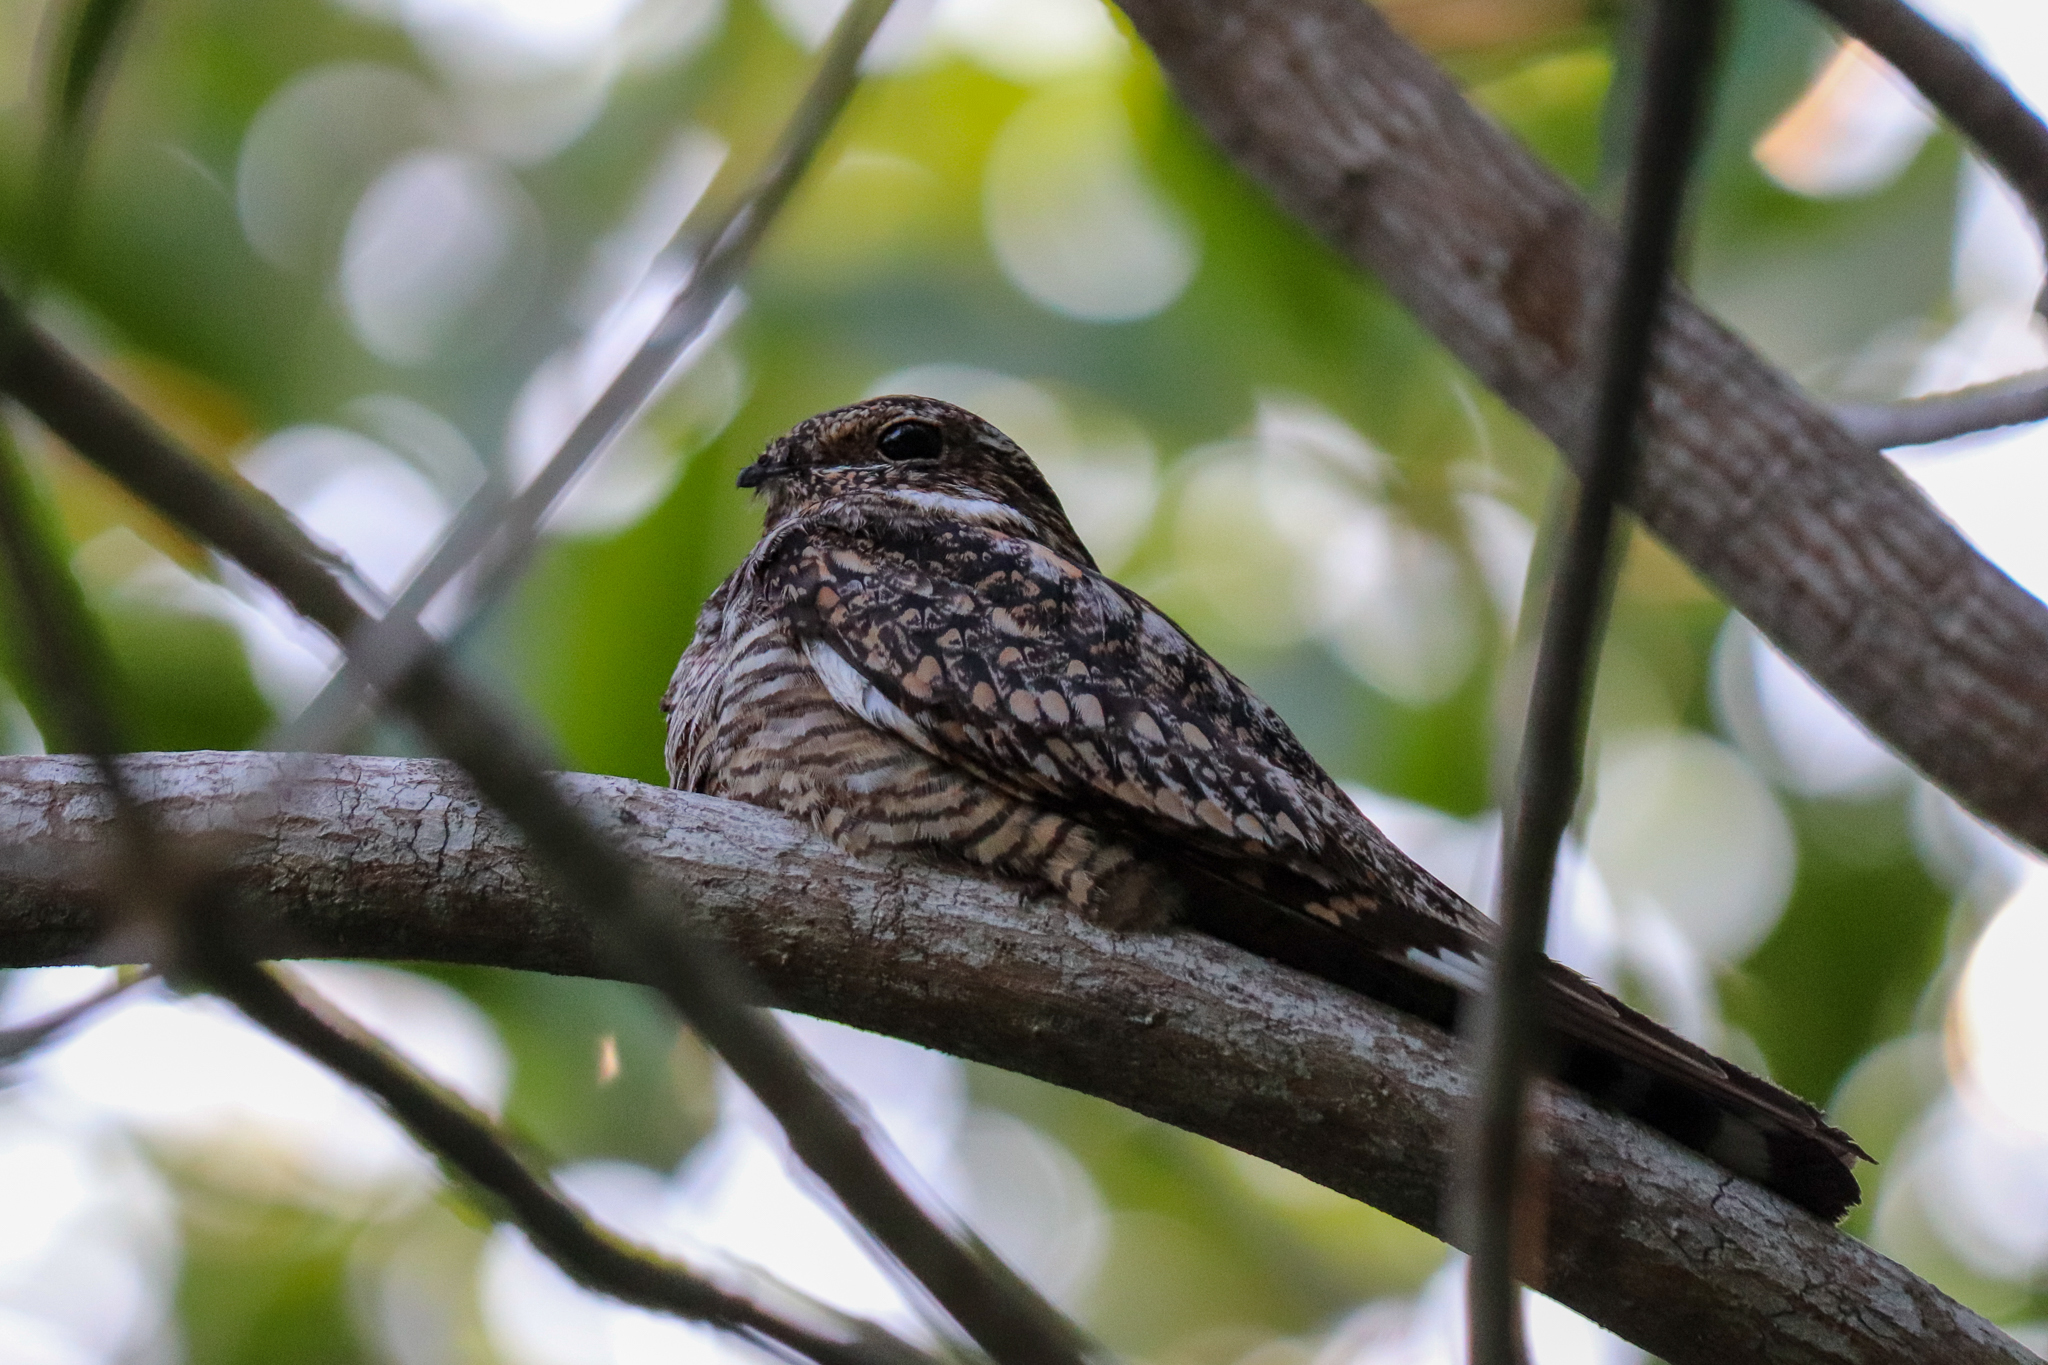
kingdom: Animalia
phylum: Chordata
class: Aves
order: Caprimulgiformes
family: Caprimulgidae
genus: Chordeiles
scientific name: Chordeiles acutipennis
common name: Lesser nighthawk
